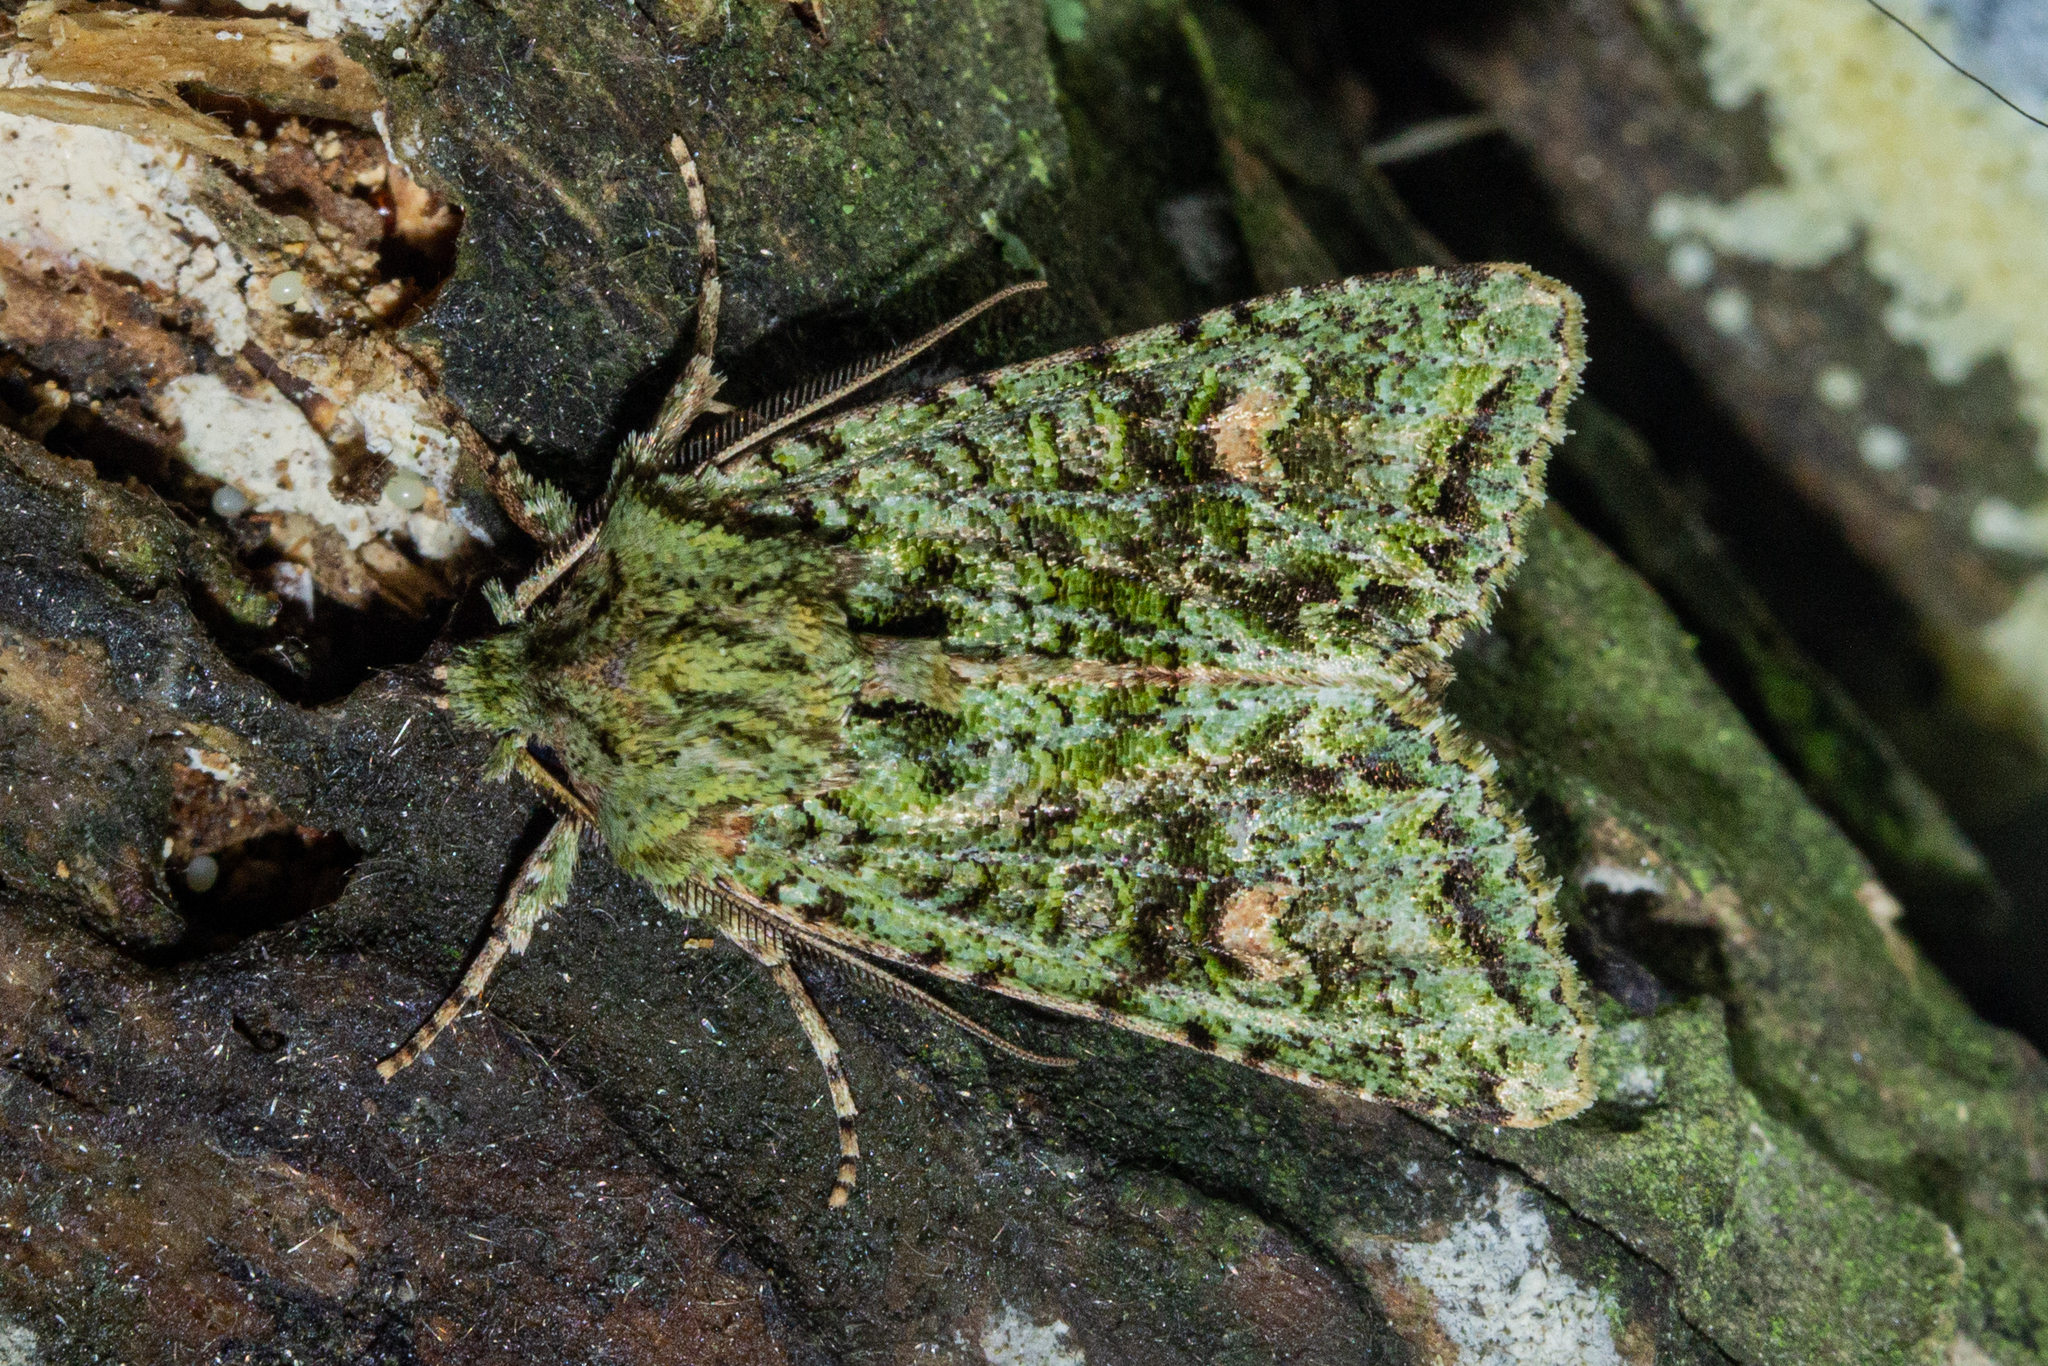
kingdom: Animalia
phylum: Arthropoda
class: Insecta
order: Lepidoptera
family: Noctuidae
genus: Ichneutica
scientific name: Ichneutica
